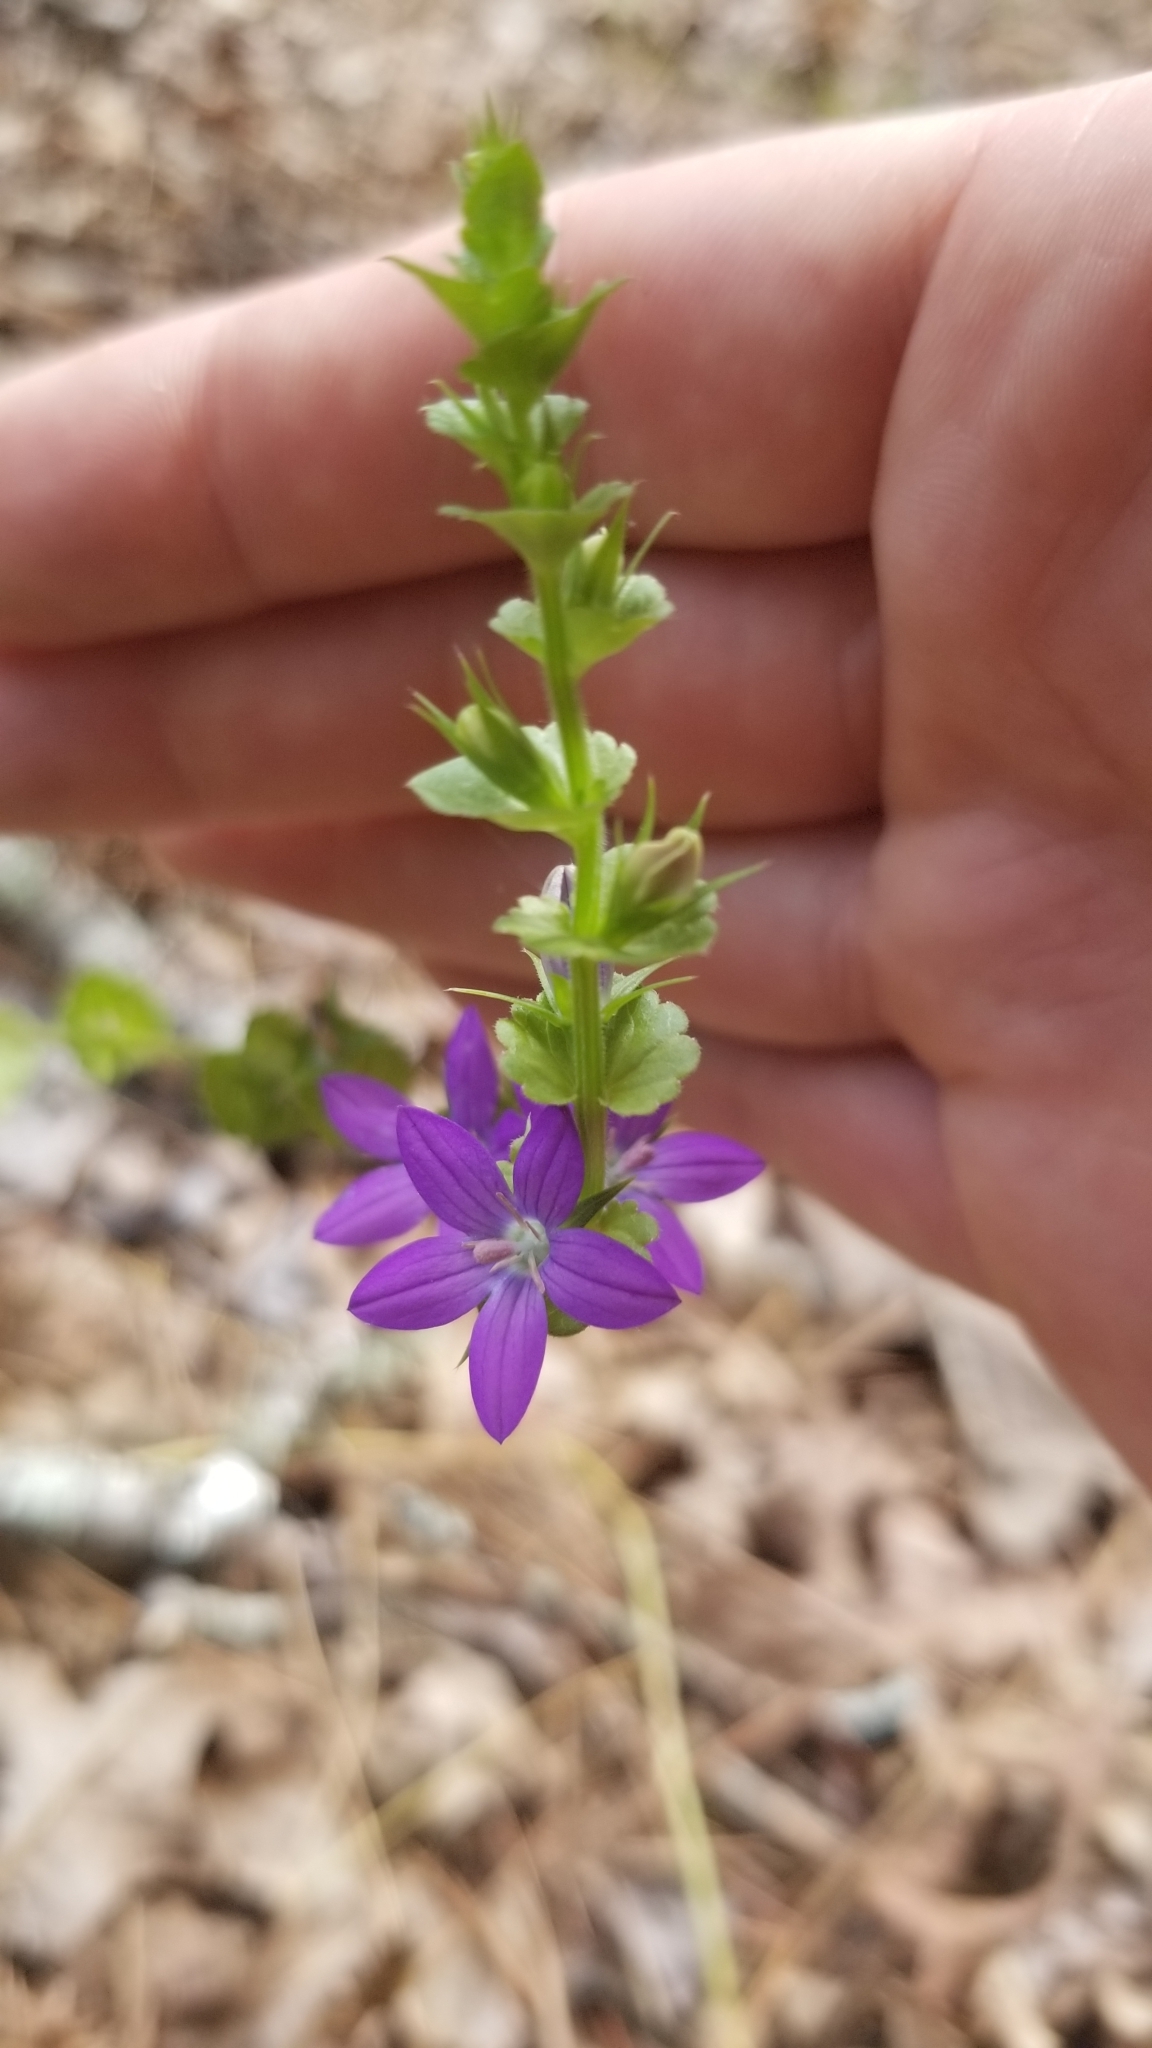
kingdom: Plantae
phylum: Tracheophyta
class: Magnoliopsida
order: Asterales
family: Campanulaceae
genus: Triodanis
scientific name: Triodanis perfoliata
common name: Clasping venus' looking-glass
